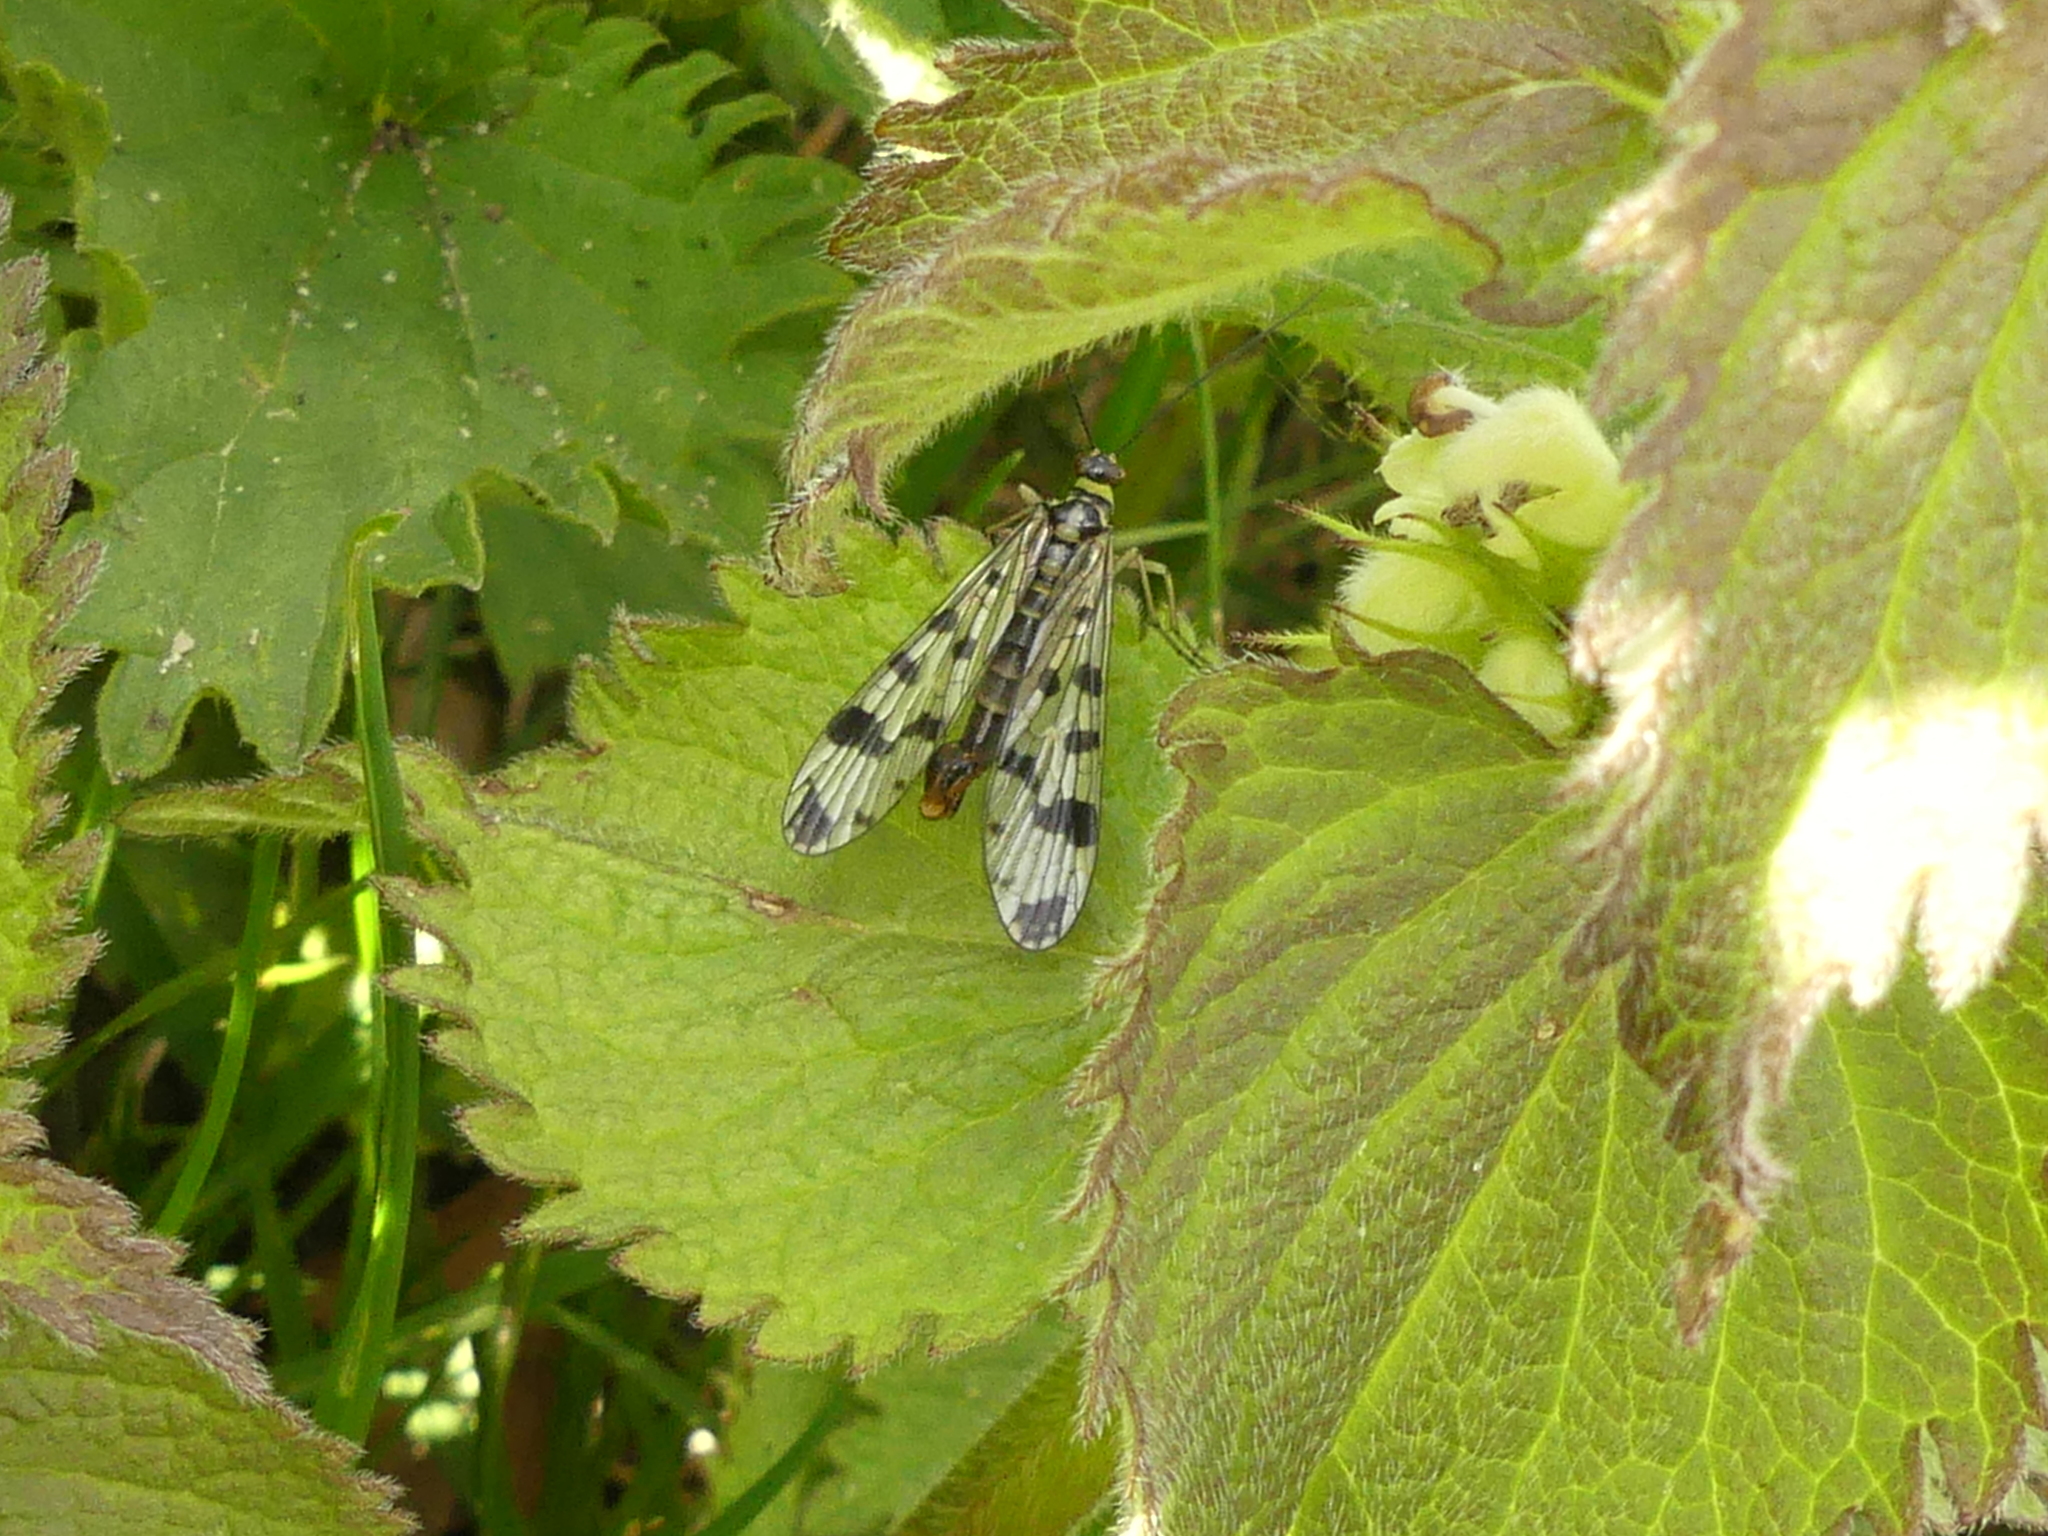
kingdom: Animalia
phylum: Arthropoda
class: Insecta
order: Mecoptera
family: Panorpidae
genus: Panorpa
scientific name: Panorpa communis
